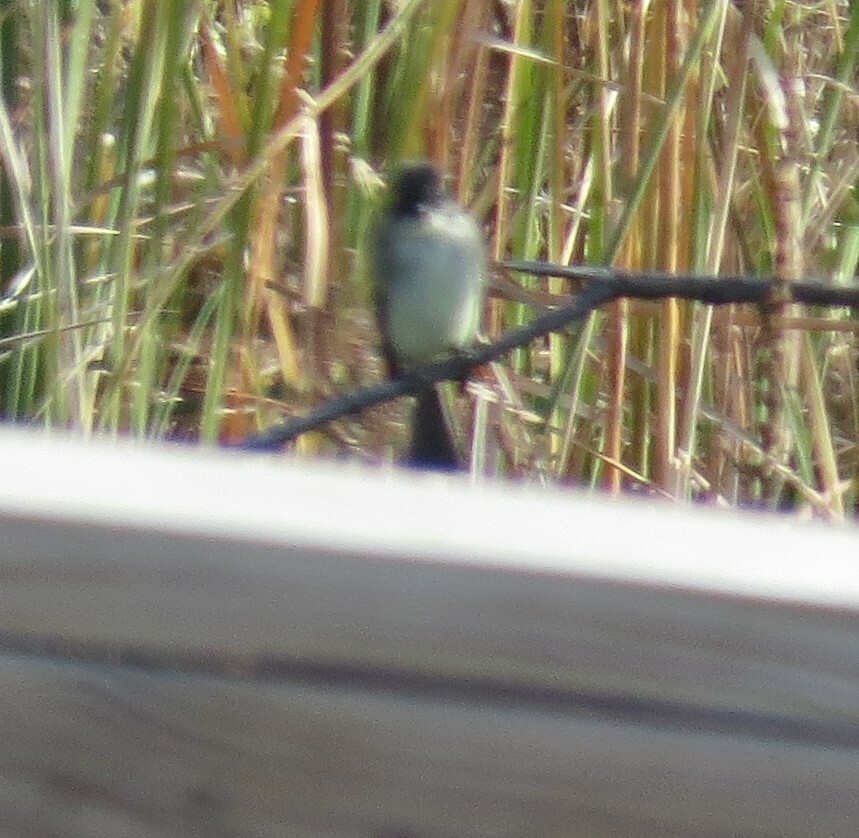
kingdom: Animalia
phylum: Chordata
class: Aves
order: Passeriformes
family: Tyrannidae
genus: Sayornis
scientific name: Sayornis phoebe
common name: Eastern phoebe
